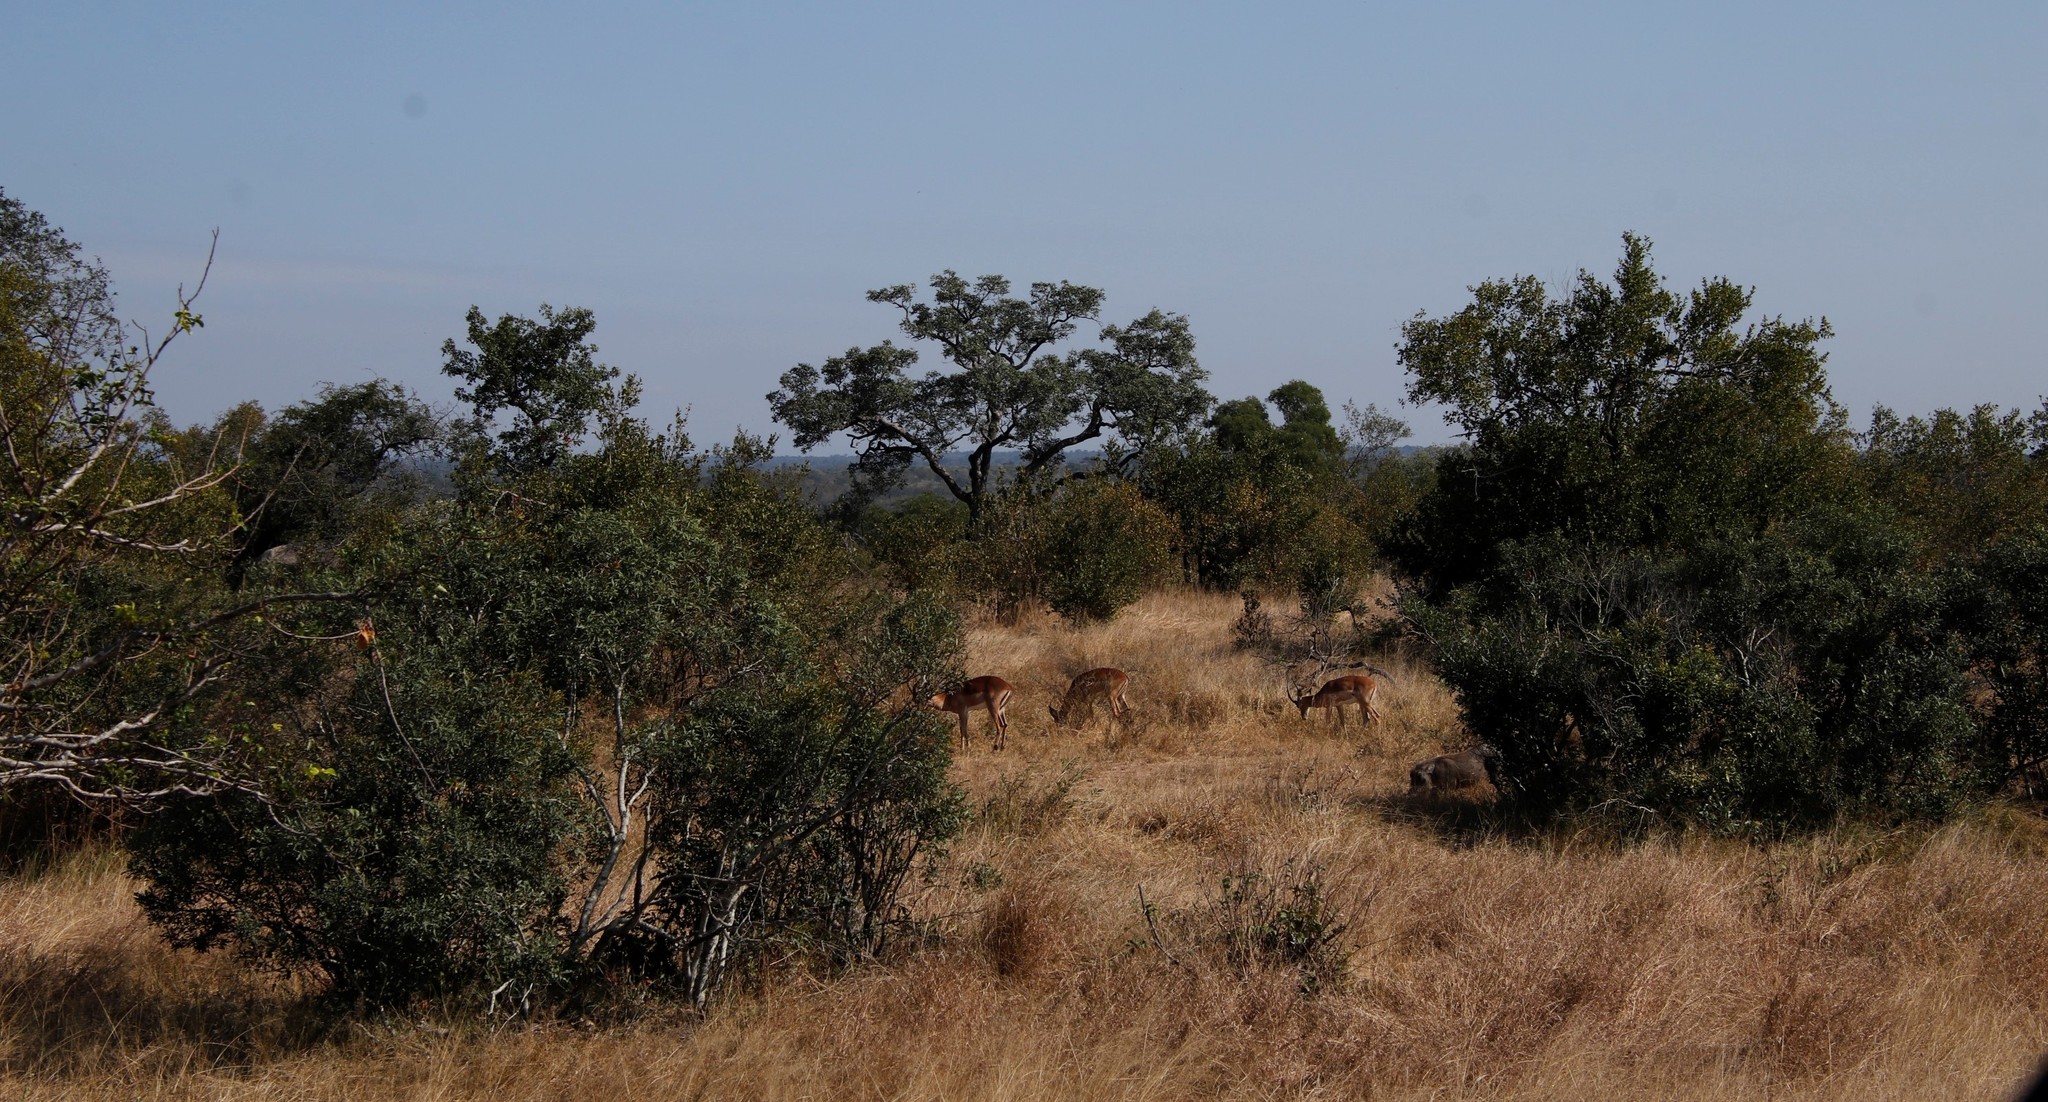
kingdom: Animalia
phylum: Chordata
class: Mammalia
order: Artiodactyla
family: Bovidae
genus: Aepyceros
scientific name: Aepyceros melampus
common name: Impala
